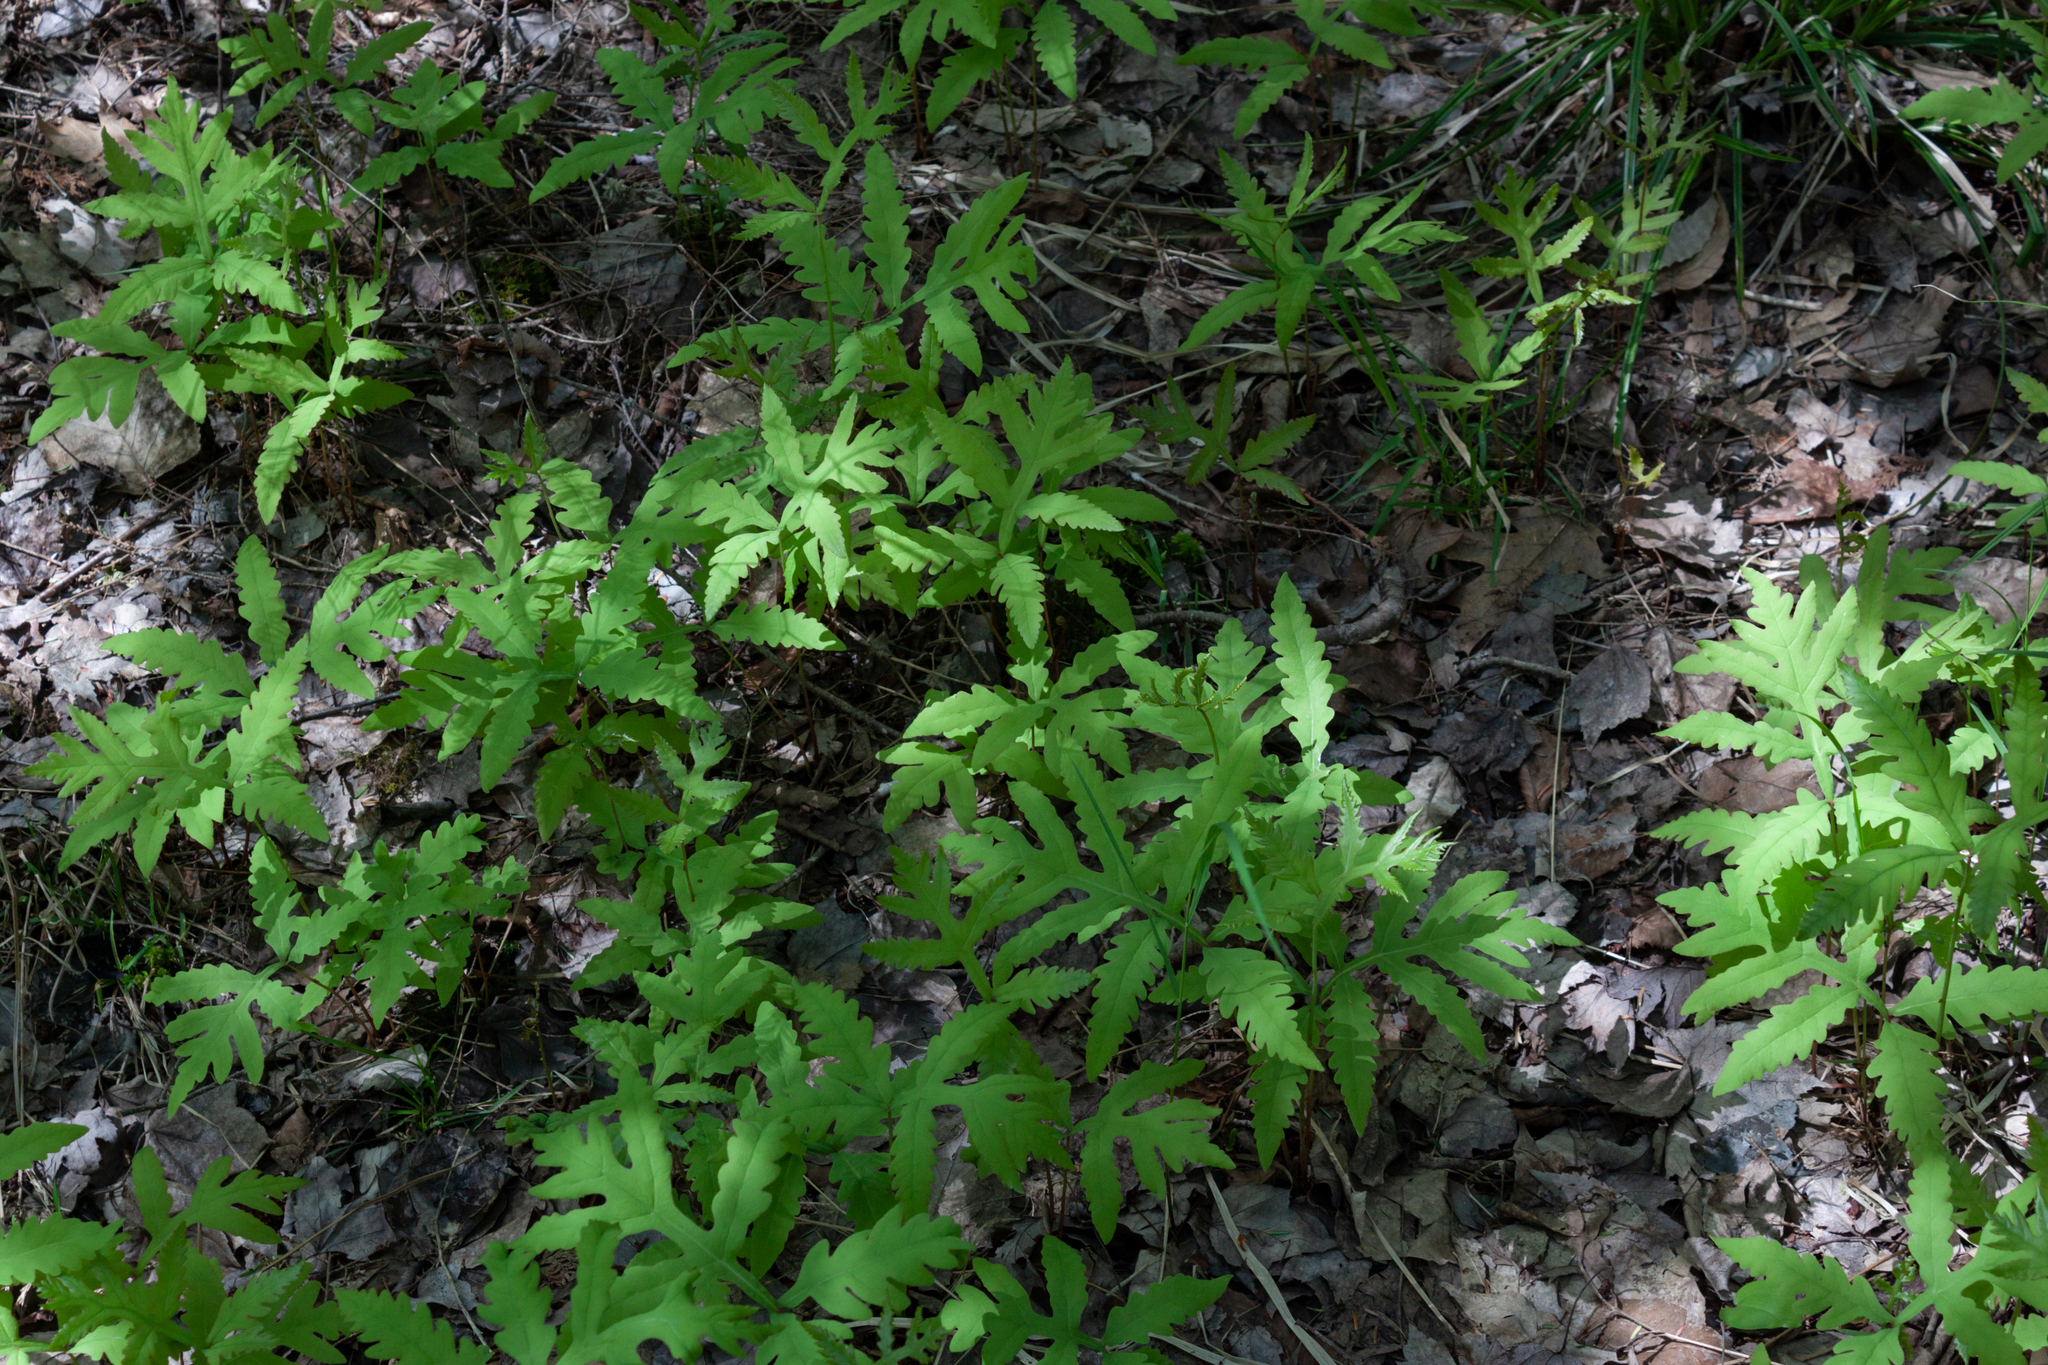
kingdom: Plantae
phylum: Tracheophyta
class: Polypodiopsida
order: Polypodiales
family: Onocleaceae
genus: Onoclea
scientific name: Onoclea sensibilis
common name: Sensitive fern
